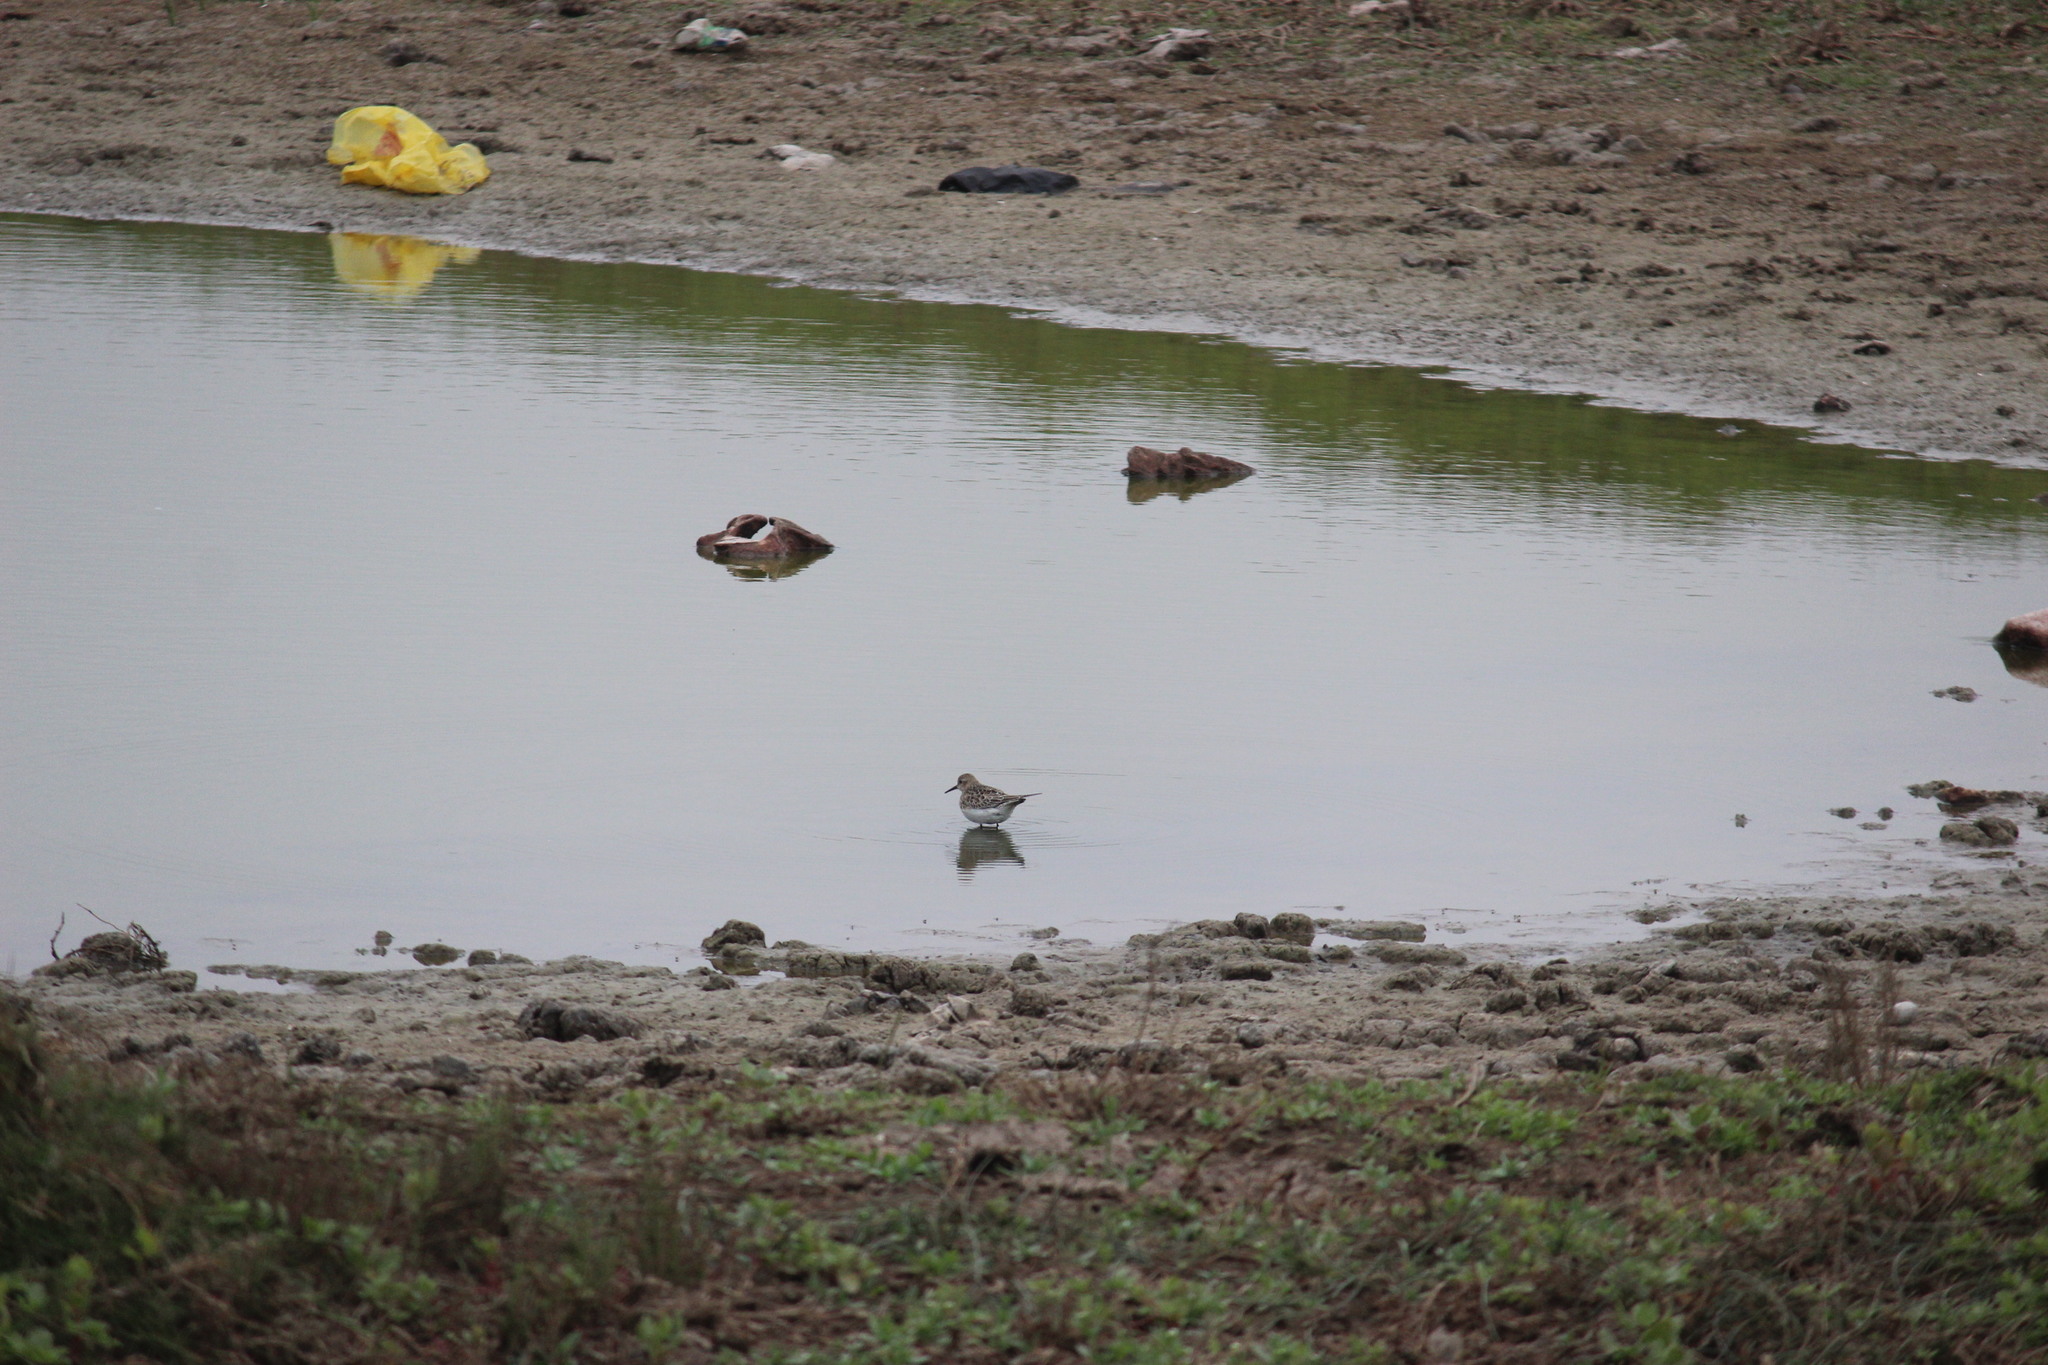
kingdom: Animalia
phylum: Chordata
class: Aves
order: Charadriiformes
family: Scolopacidae
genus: Calidris
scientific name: Calidris bairdii
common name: Baird's sandpiper
